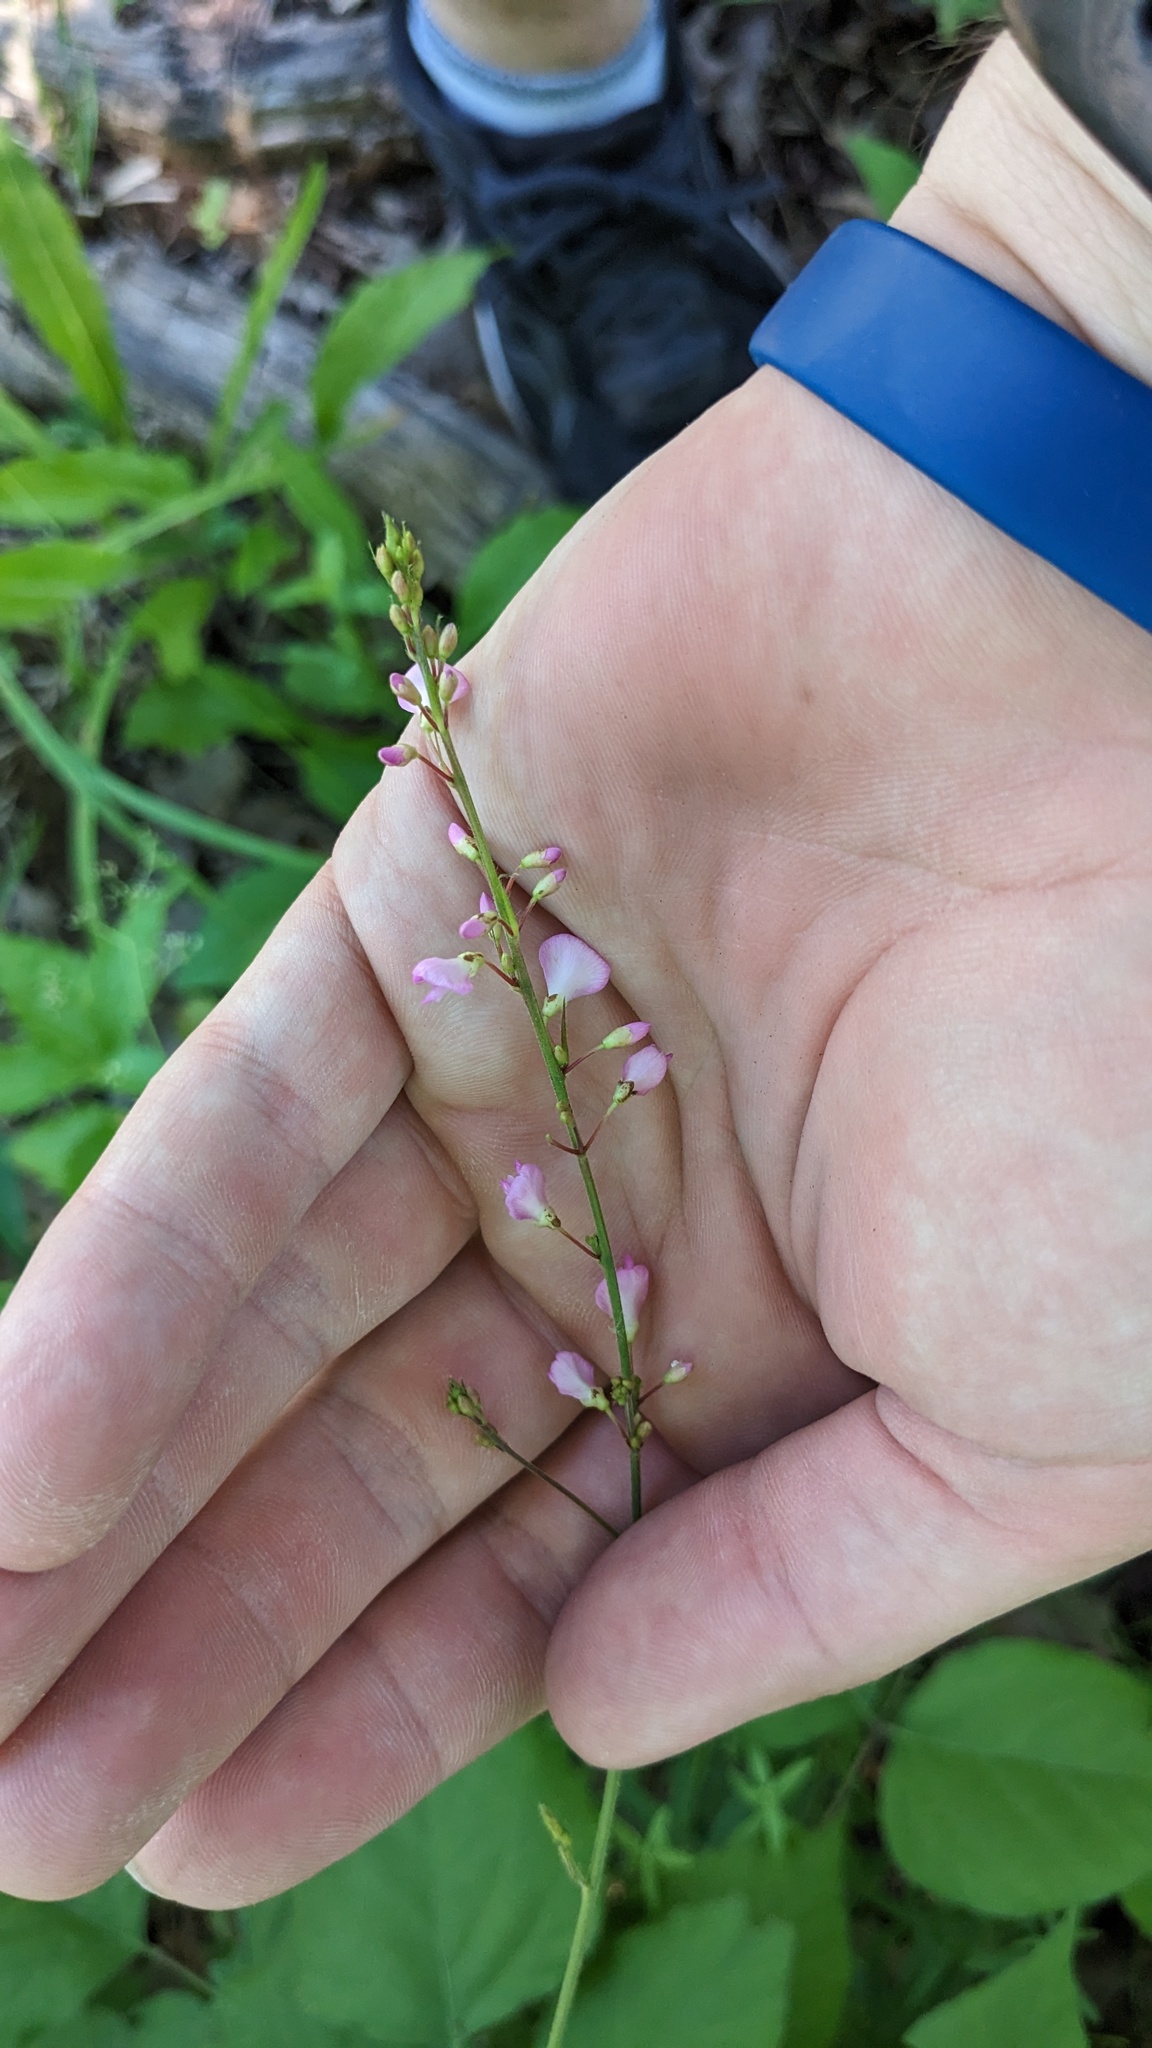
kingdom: Plantae
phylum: Tracheophyta
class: Magnoliopsida
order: Fabales
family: Fabaceae
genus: Hylodesmum
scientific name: Hylodesmum glutinosum
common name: Clustered-leaved tick-trefoil
